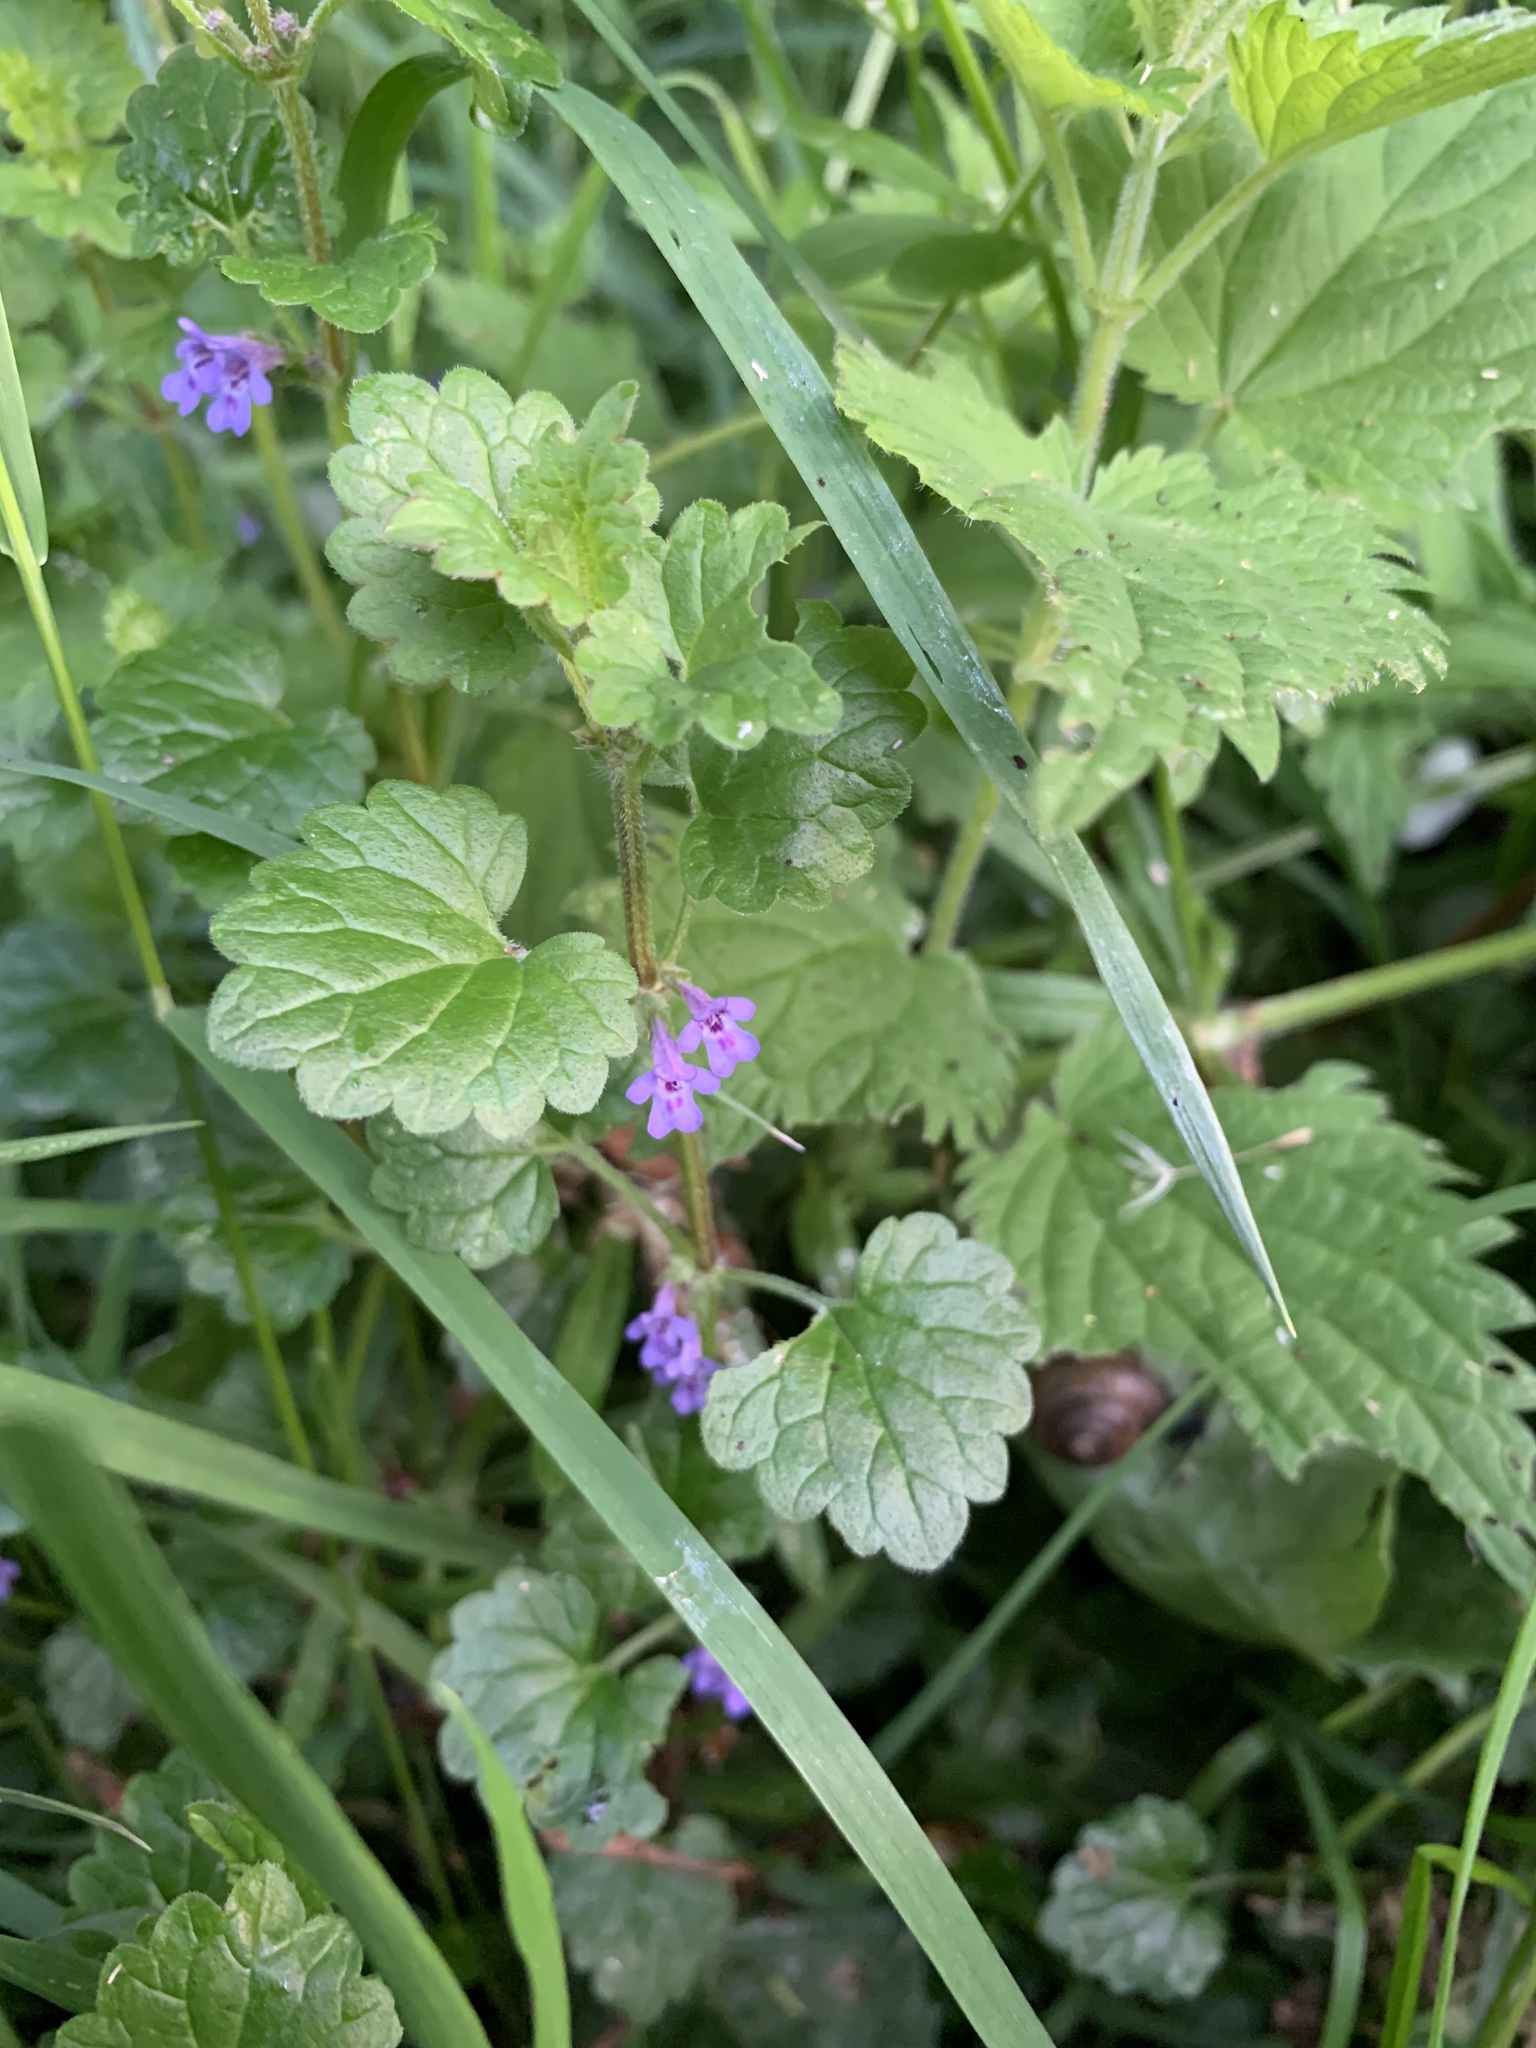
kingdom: Plantae
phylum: Tracheophyta
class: Magnoliopsida
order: Lamiales
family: Lamiaceae
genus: Glechoma
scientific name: Glechoma hederacea
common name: Ground ivy
